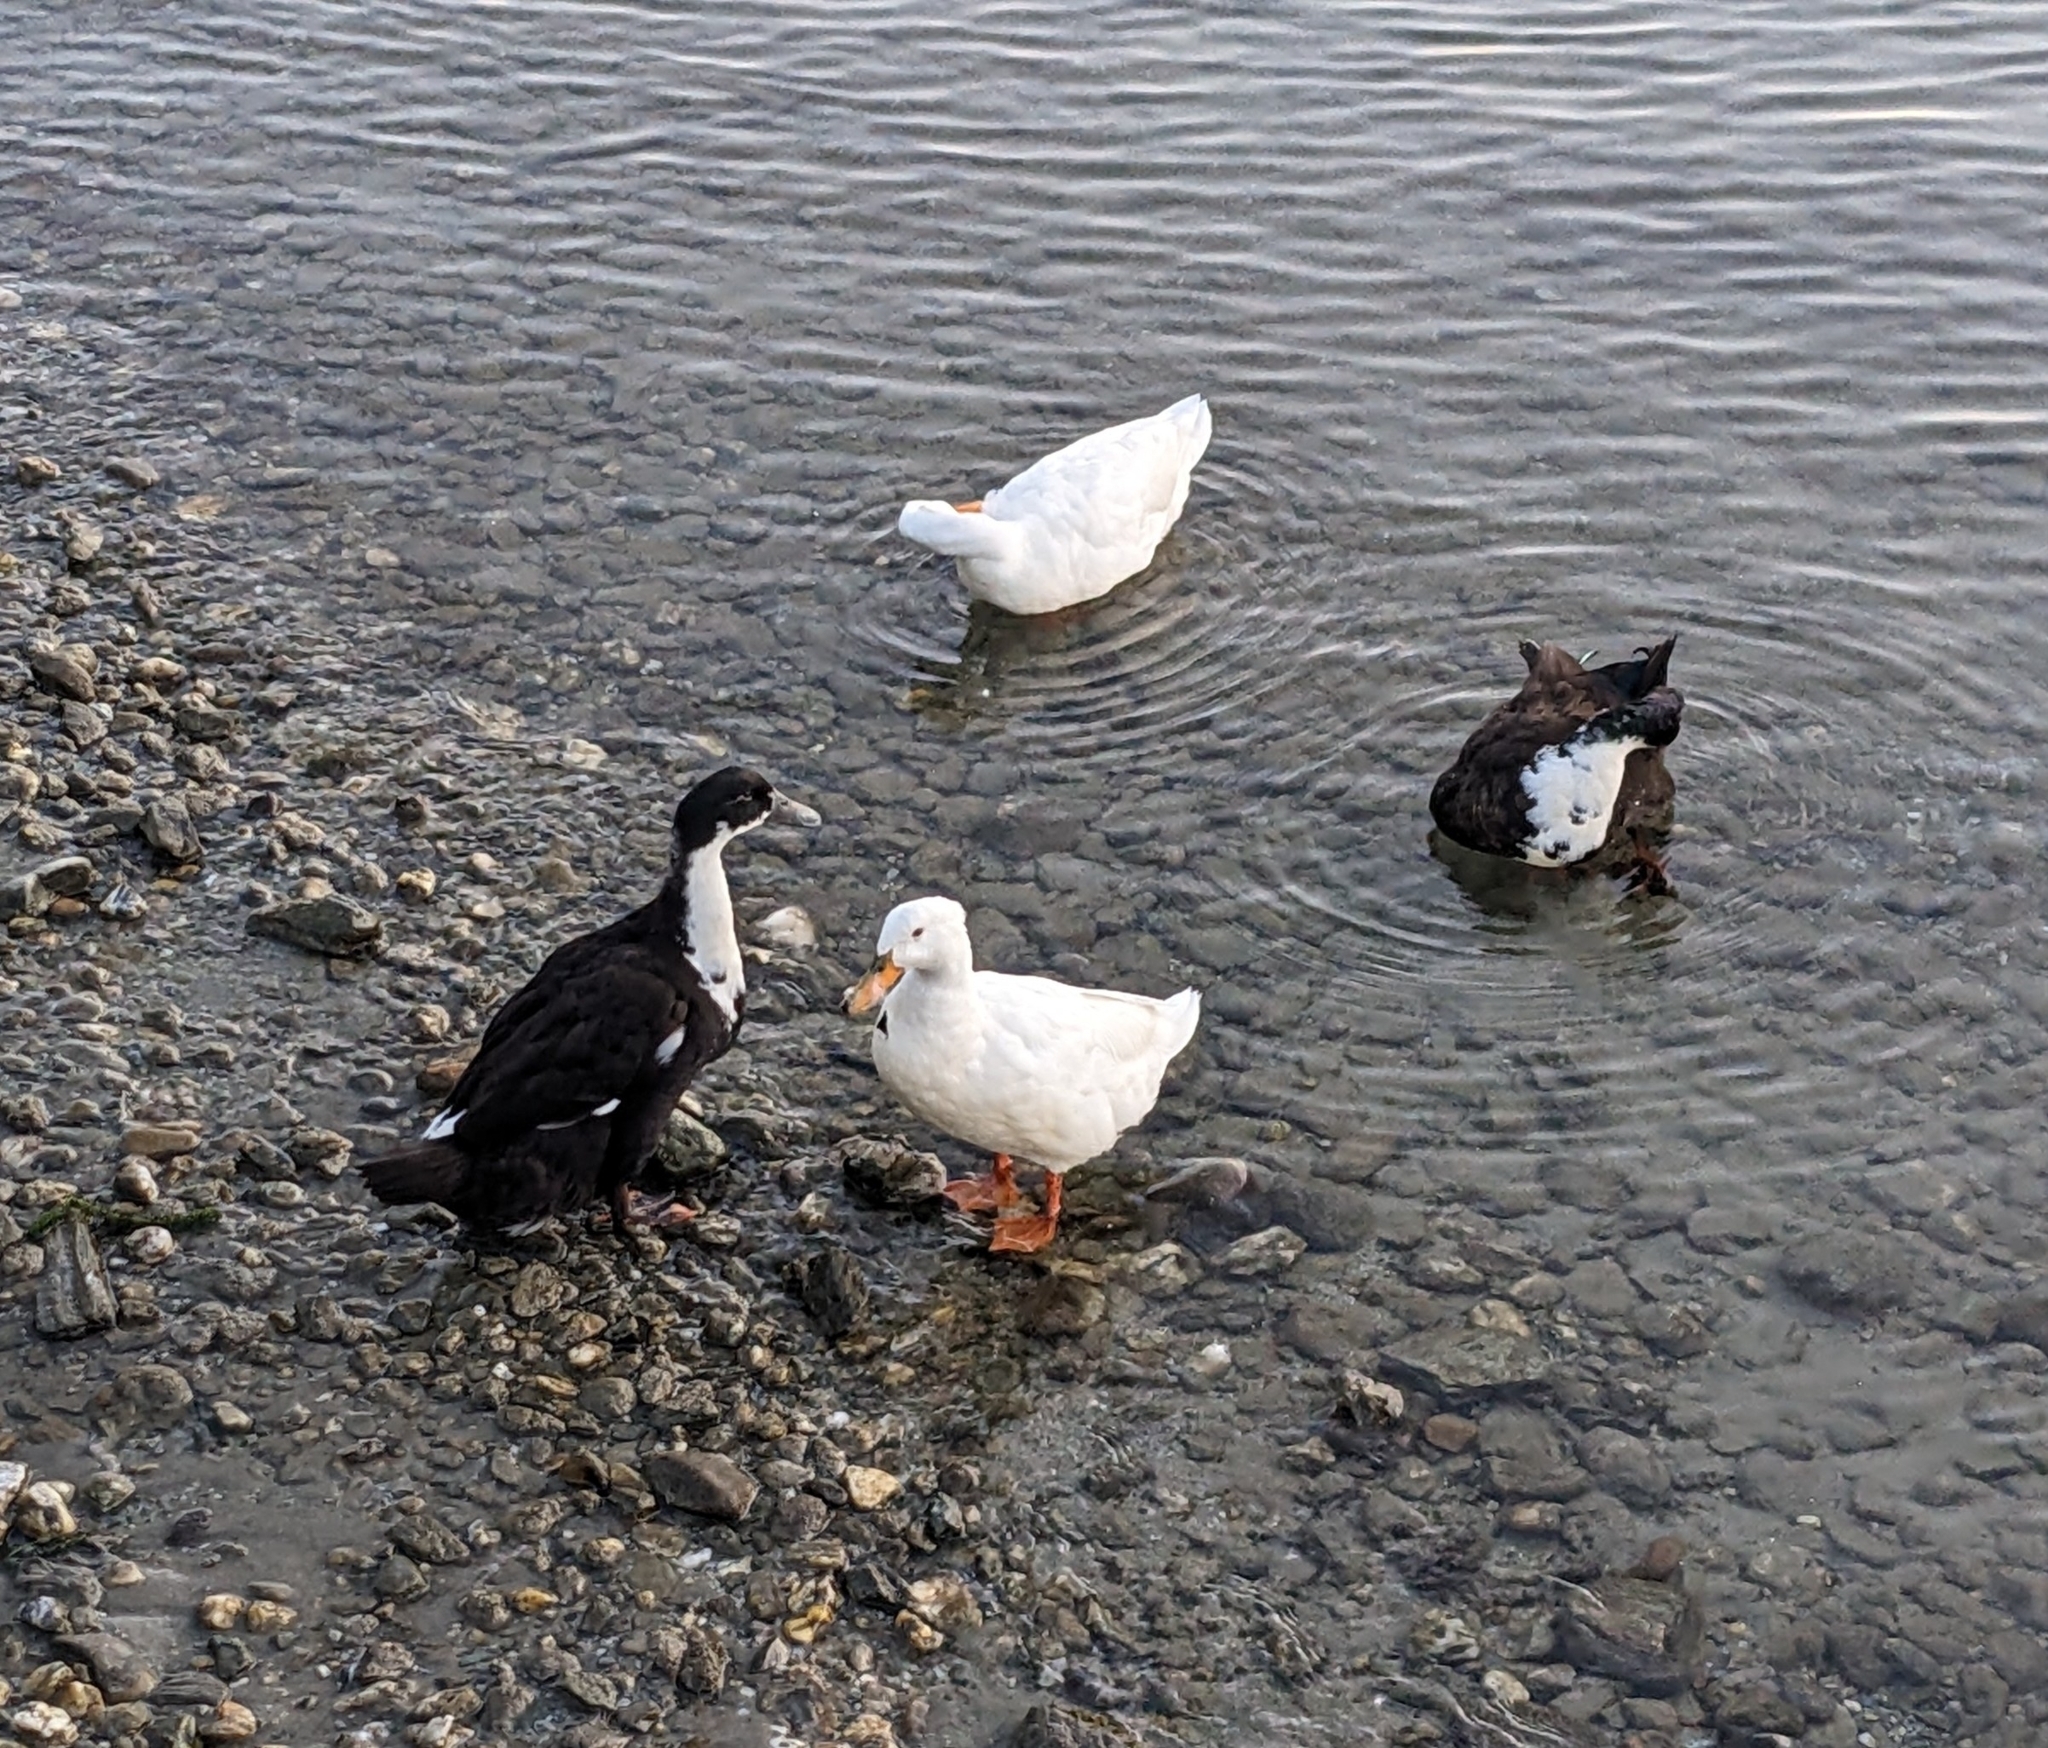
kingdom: Animalia
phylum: Chordata
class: Aves
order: Anseriformes
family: Anatidae
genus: Anas
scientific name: Anas platyrhynchos
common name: Mallard
